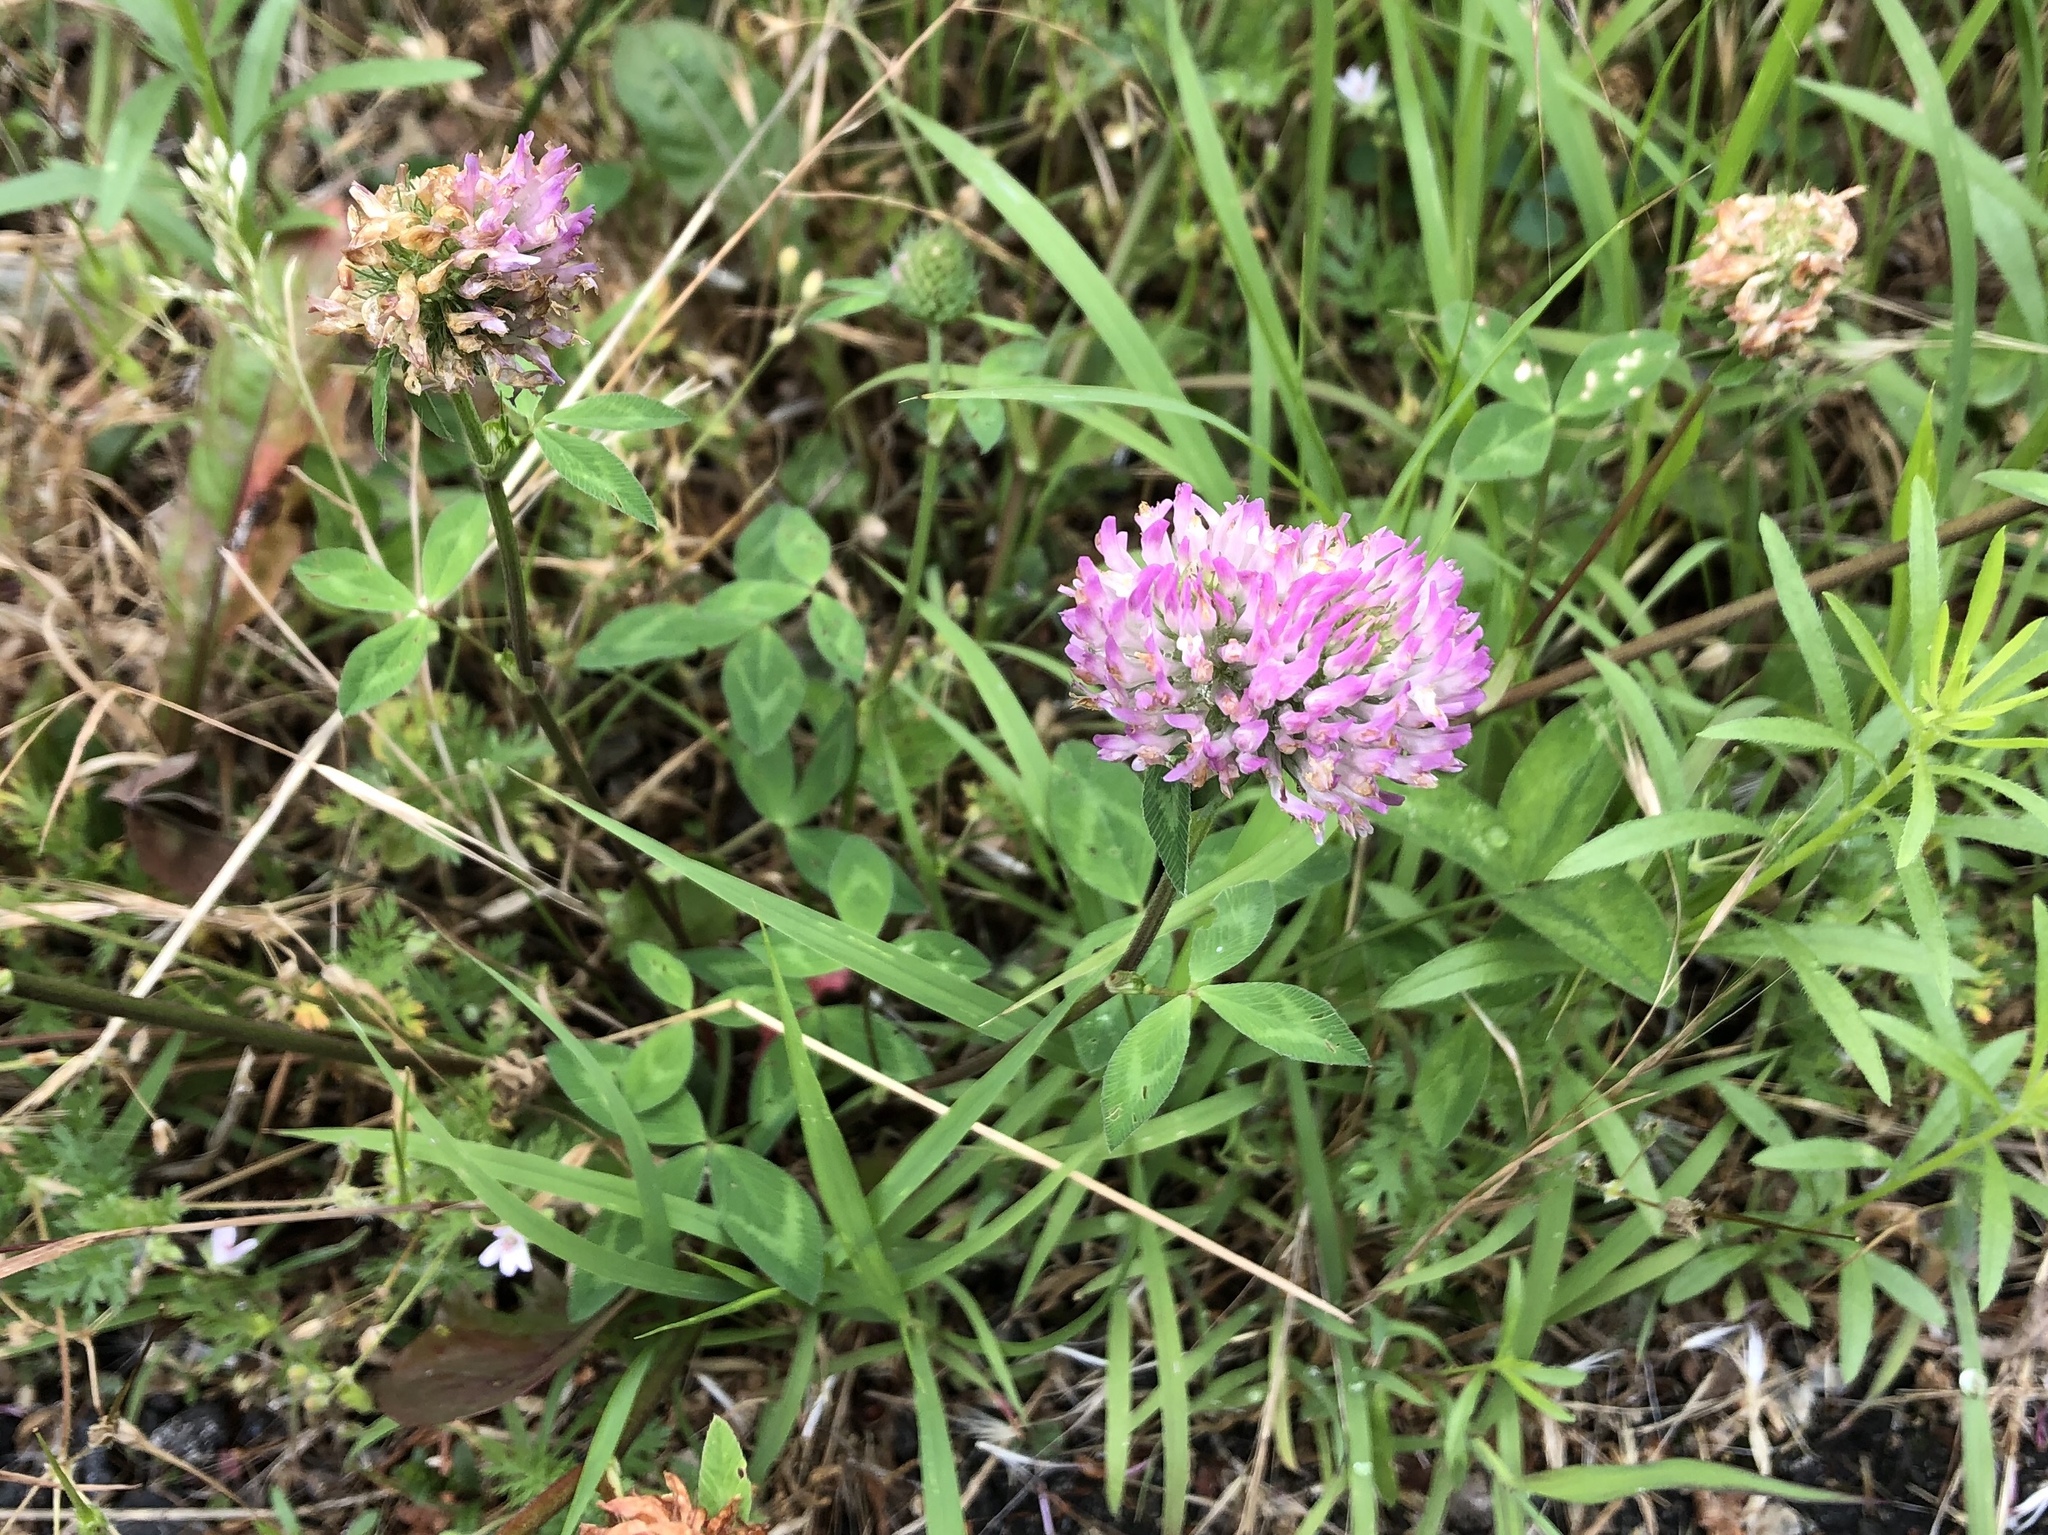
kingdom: Plantae
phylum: Tracheophyta
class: Magnoliopsida
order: Fabales
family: Fabaceae
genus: Trifolium
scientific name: Trifolium pratense
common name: Red clover
